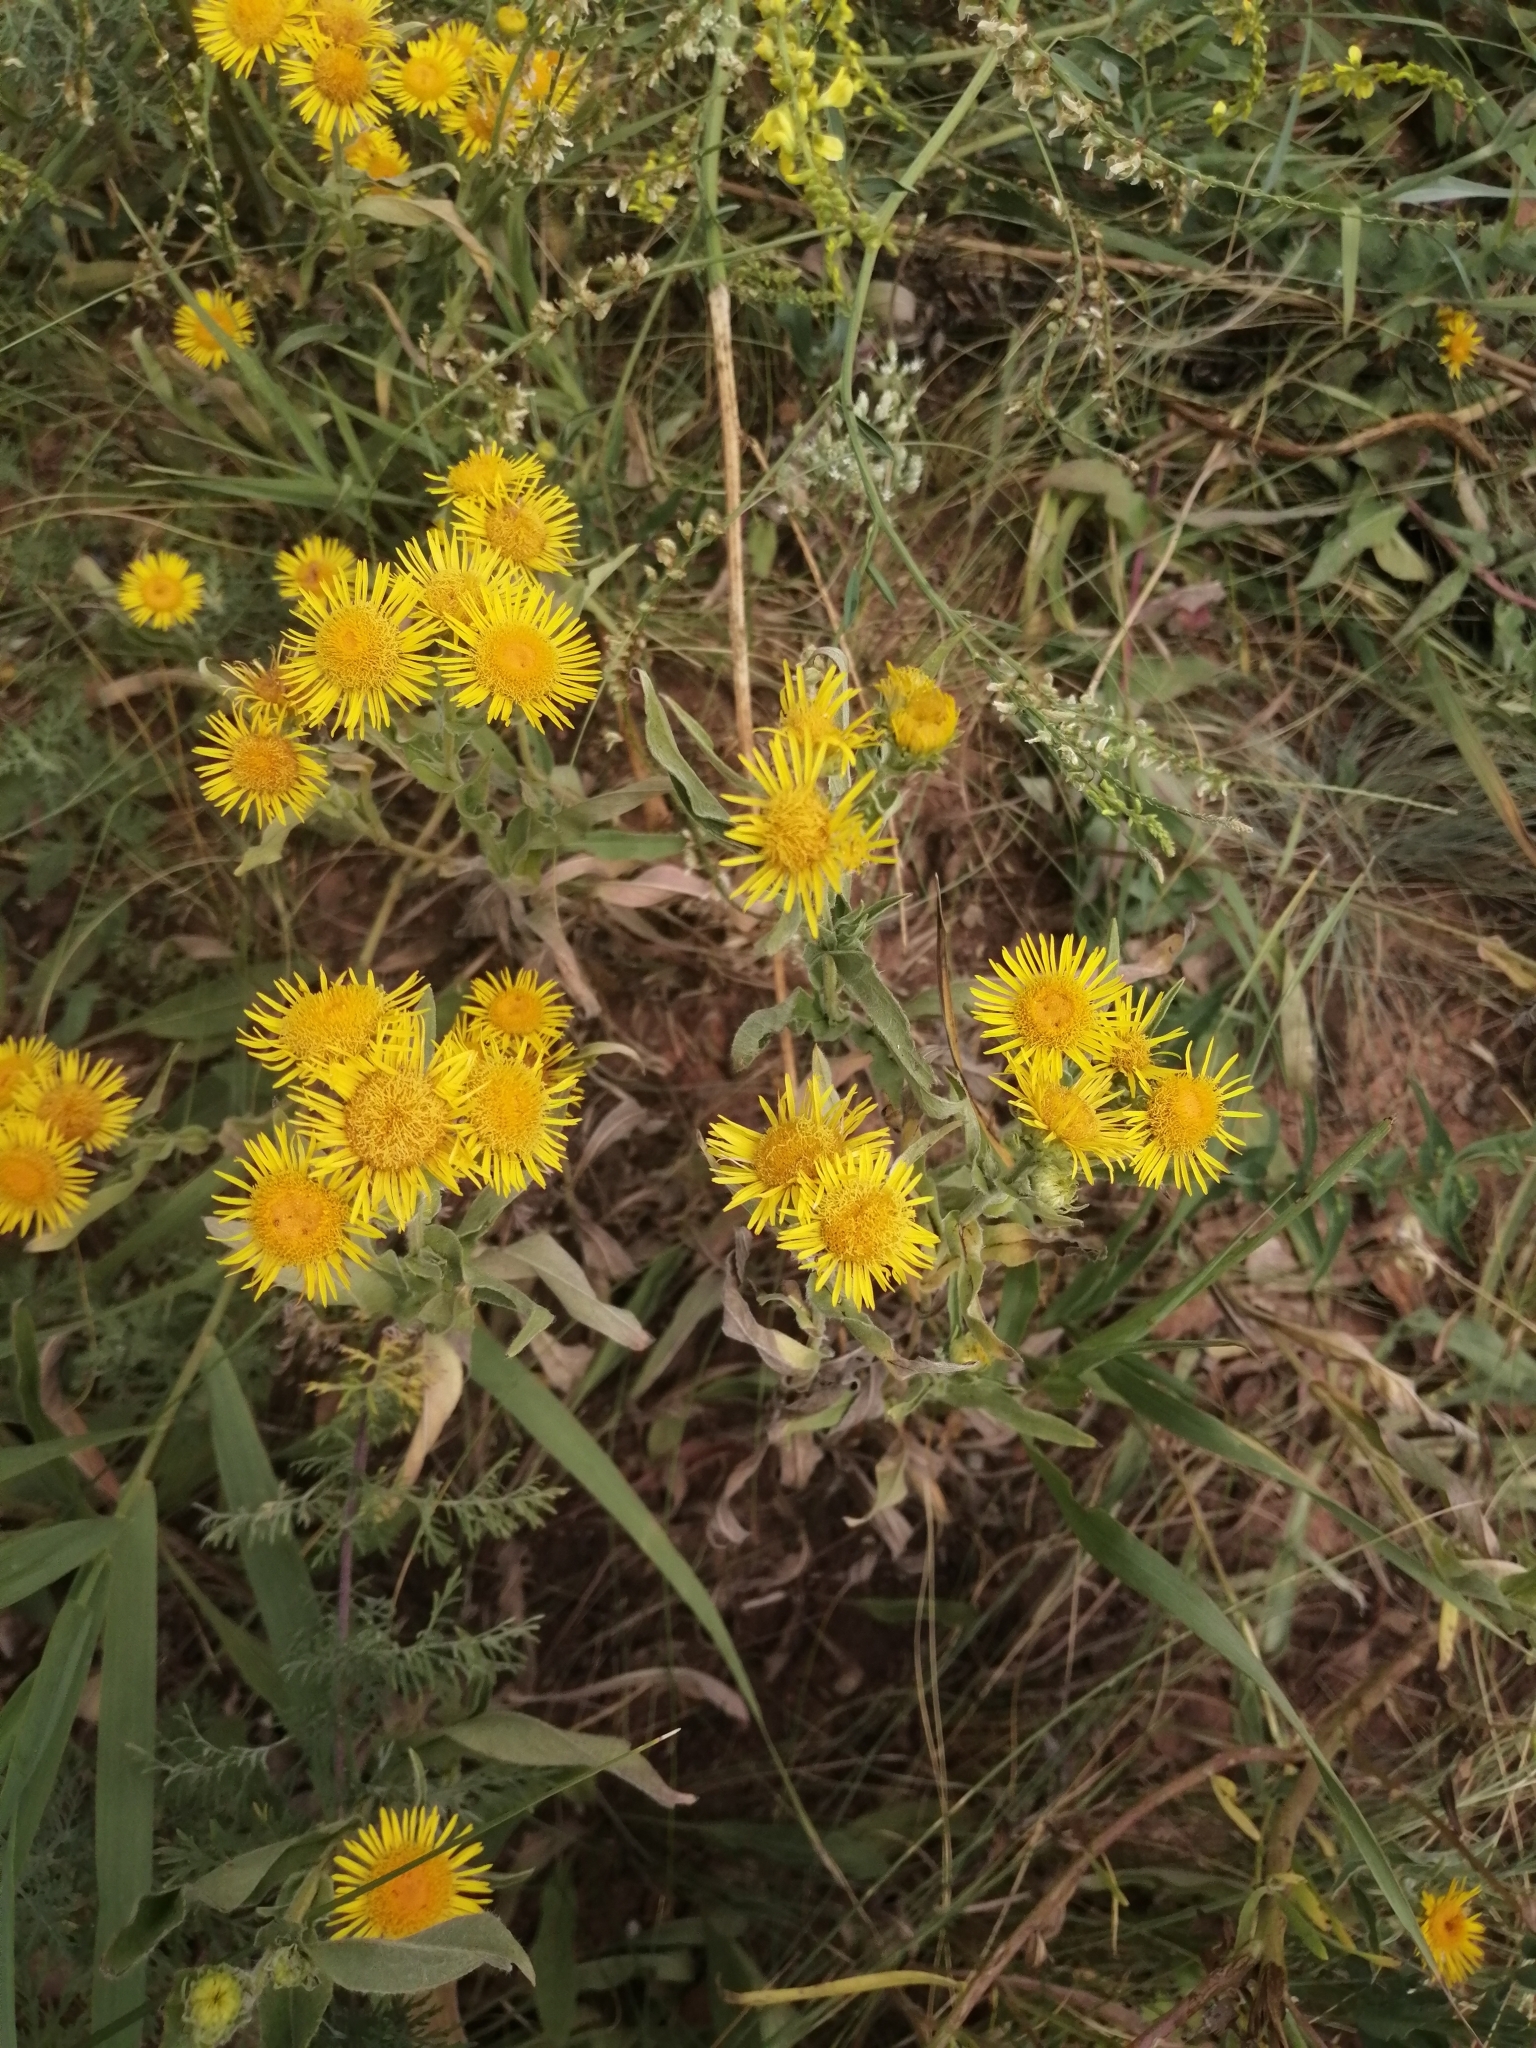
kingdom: Plantae
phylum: Tracheophyta
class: Magnoliopsida
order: Asterales
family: Asteraceae
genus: Pentanema
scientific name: Pentanema britannicum
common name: British elecampane
